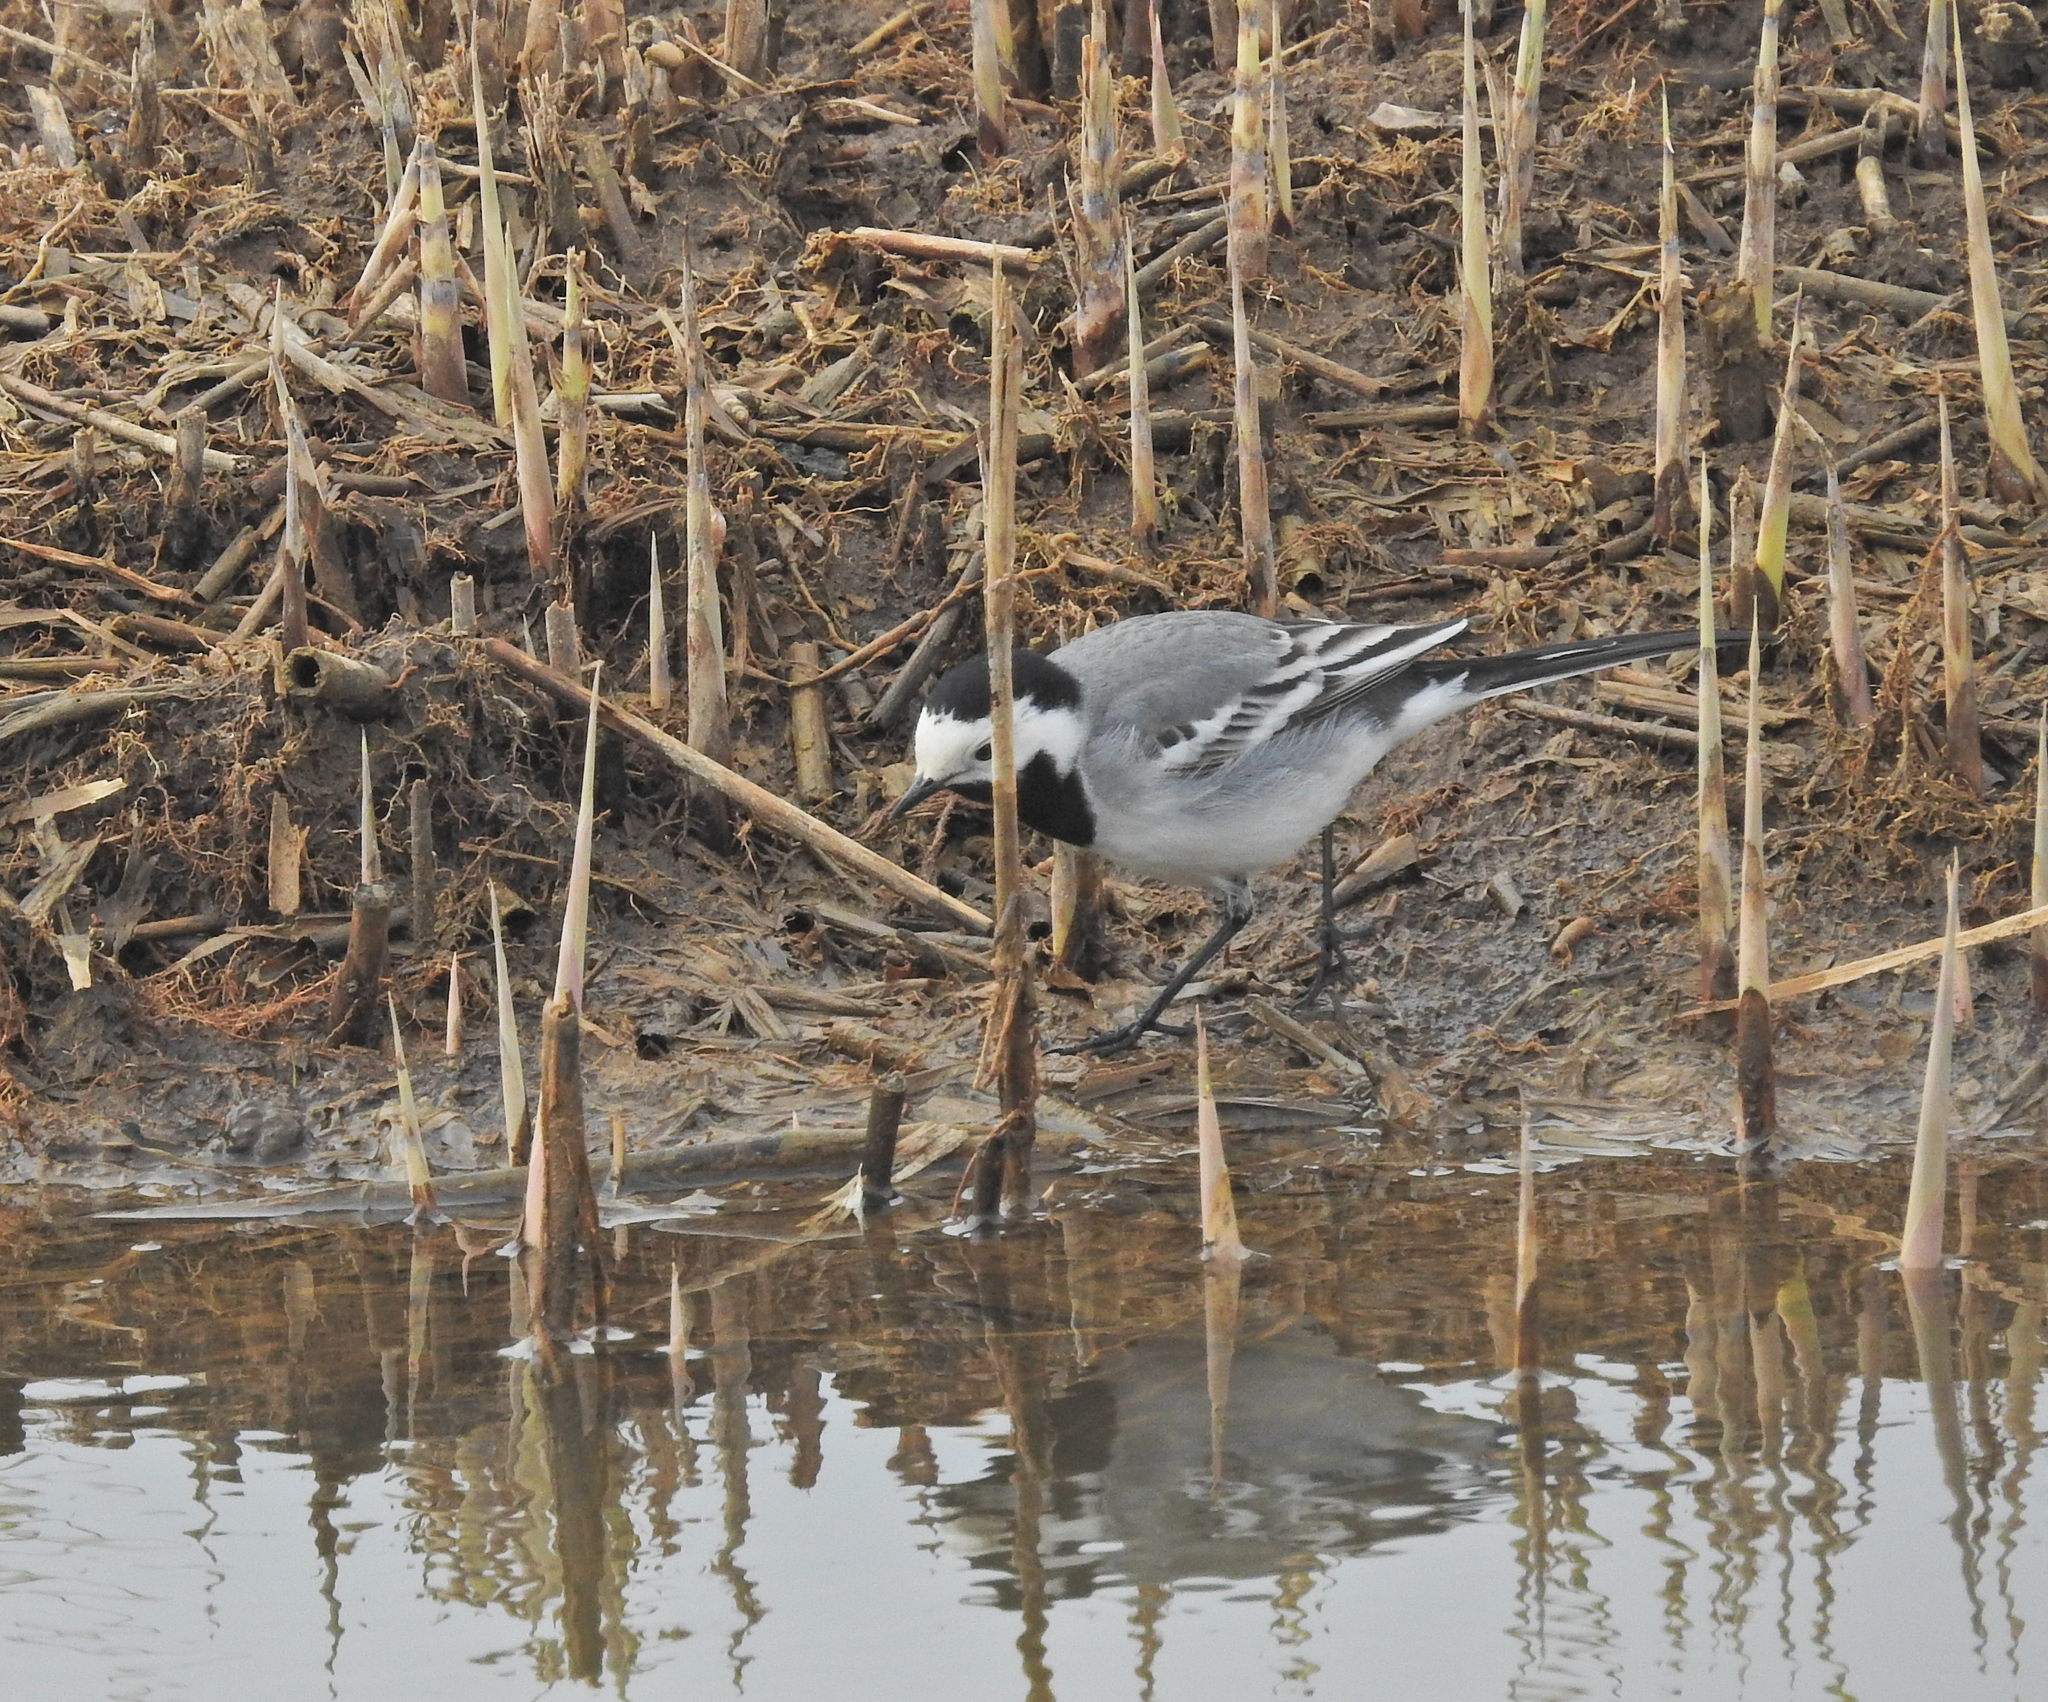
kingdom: Animalia
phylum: Chordata
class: Aves
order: Passeriformes
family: Motacillidae
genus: Motacilla
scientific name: Motacilla alba
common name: White wagtail
